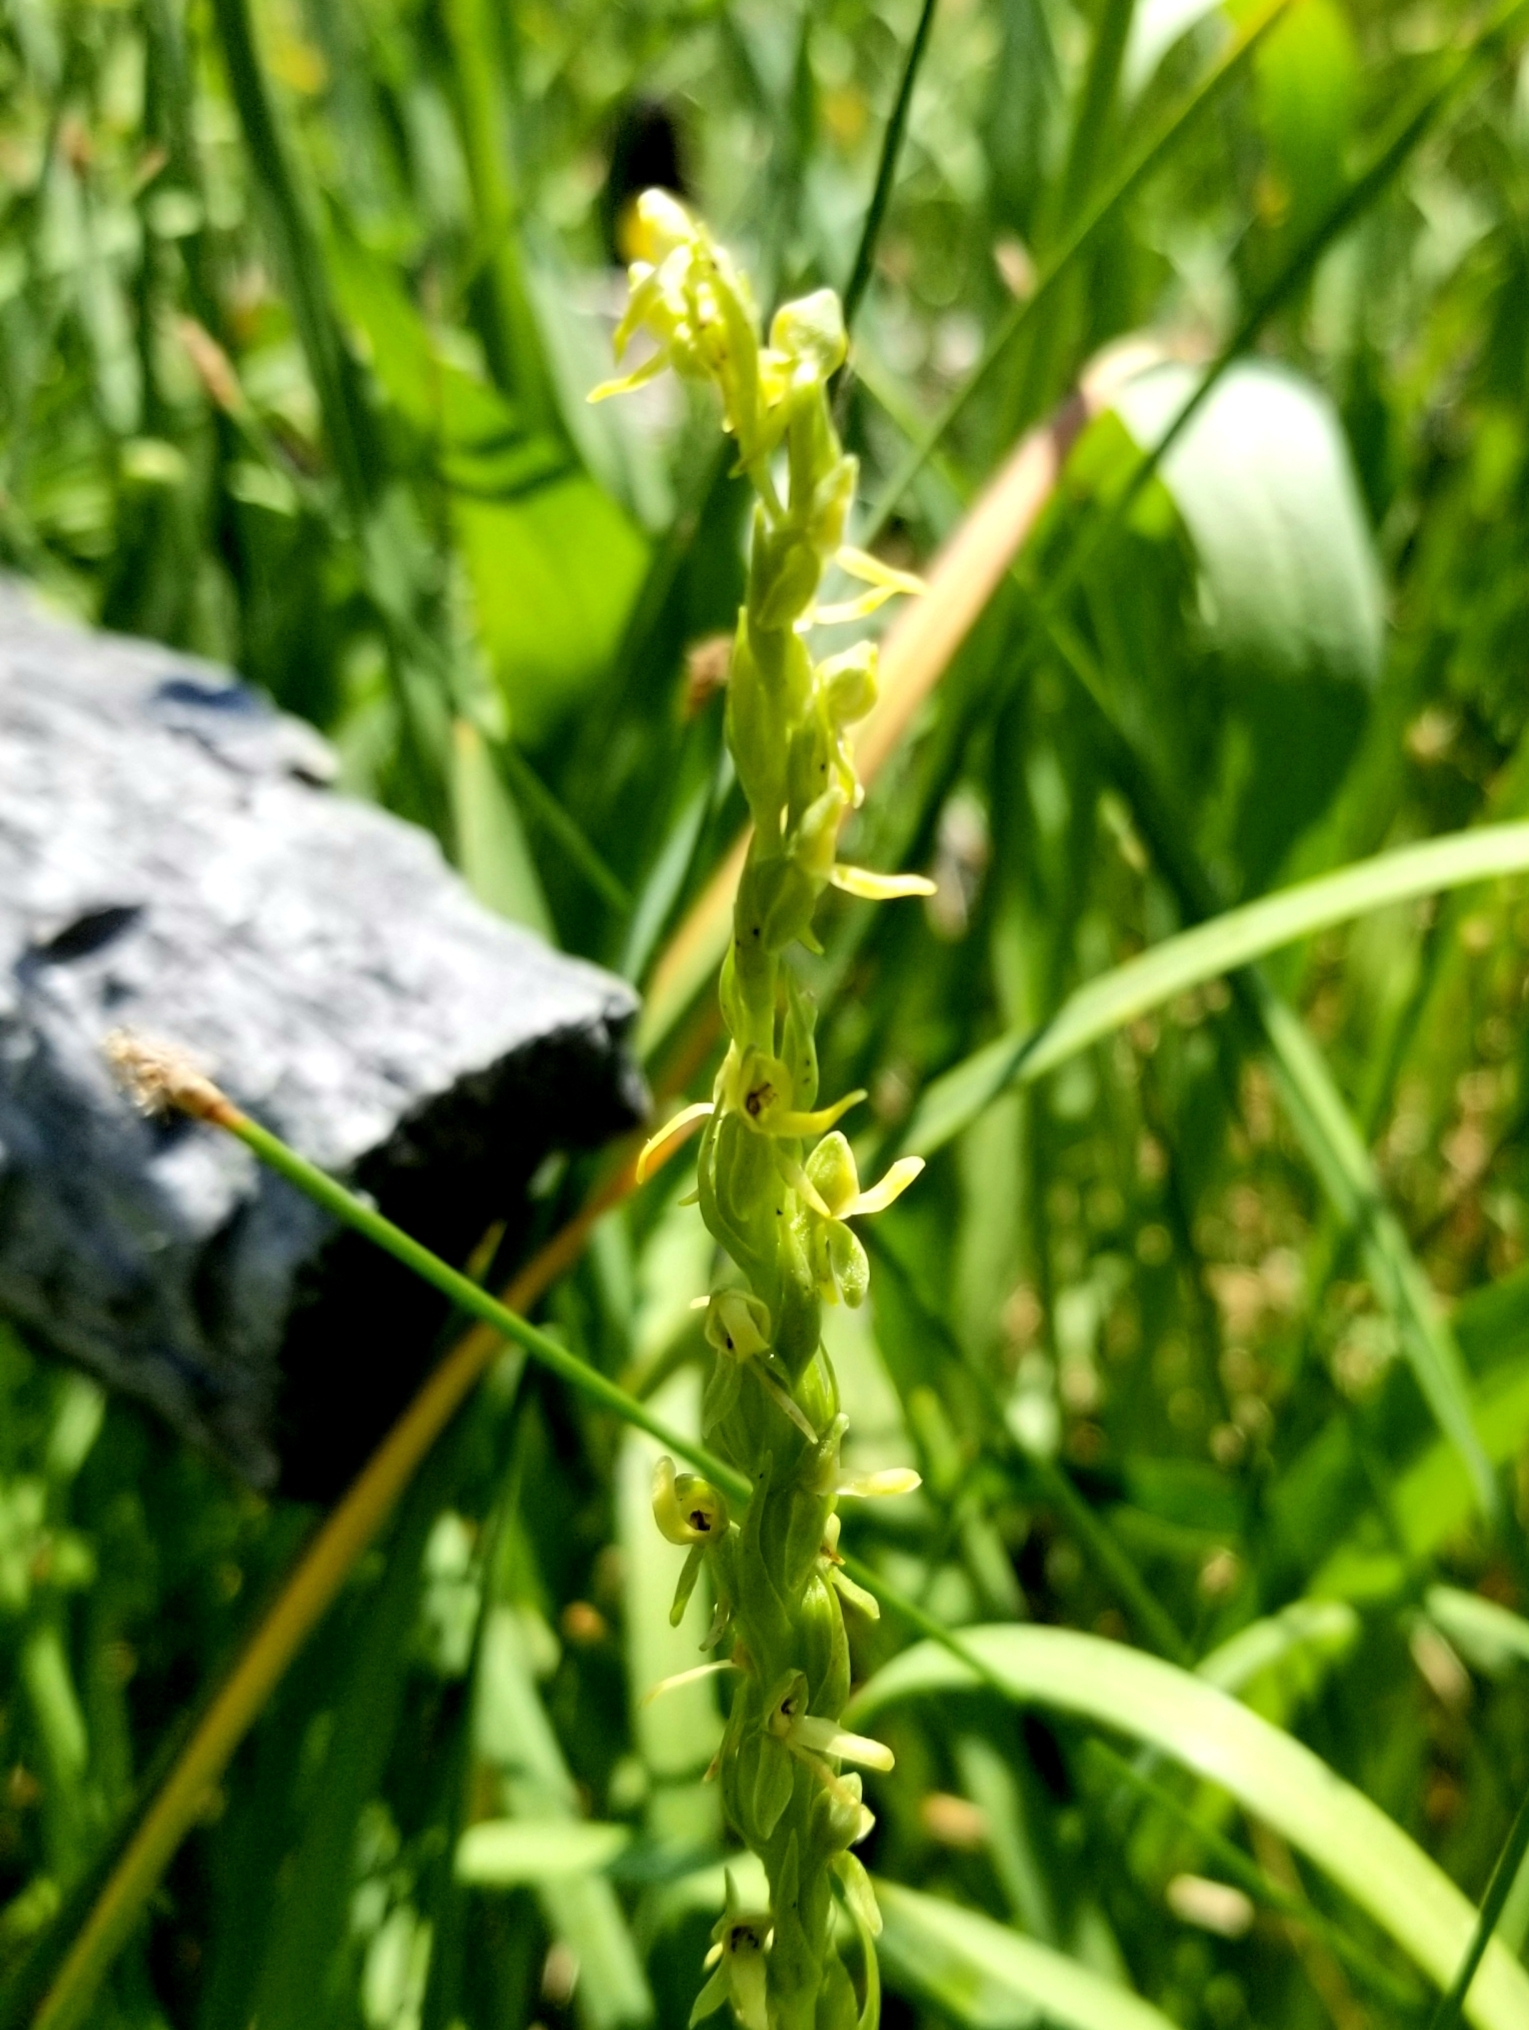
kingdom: Plantae
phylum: Tracheophyta
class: Liliopsida
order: Asparagales
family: Orchidaceae
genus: Platanthera
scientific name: Platanthera sparsiflora
